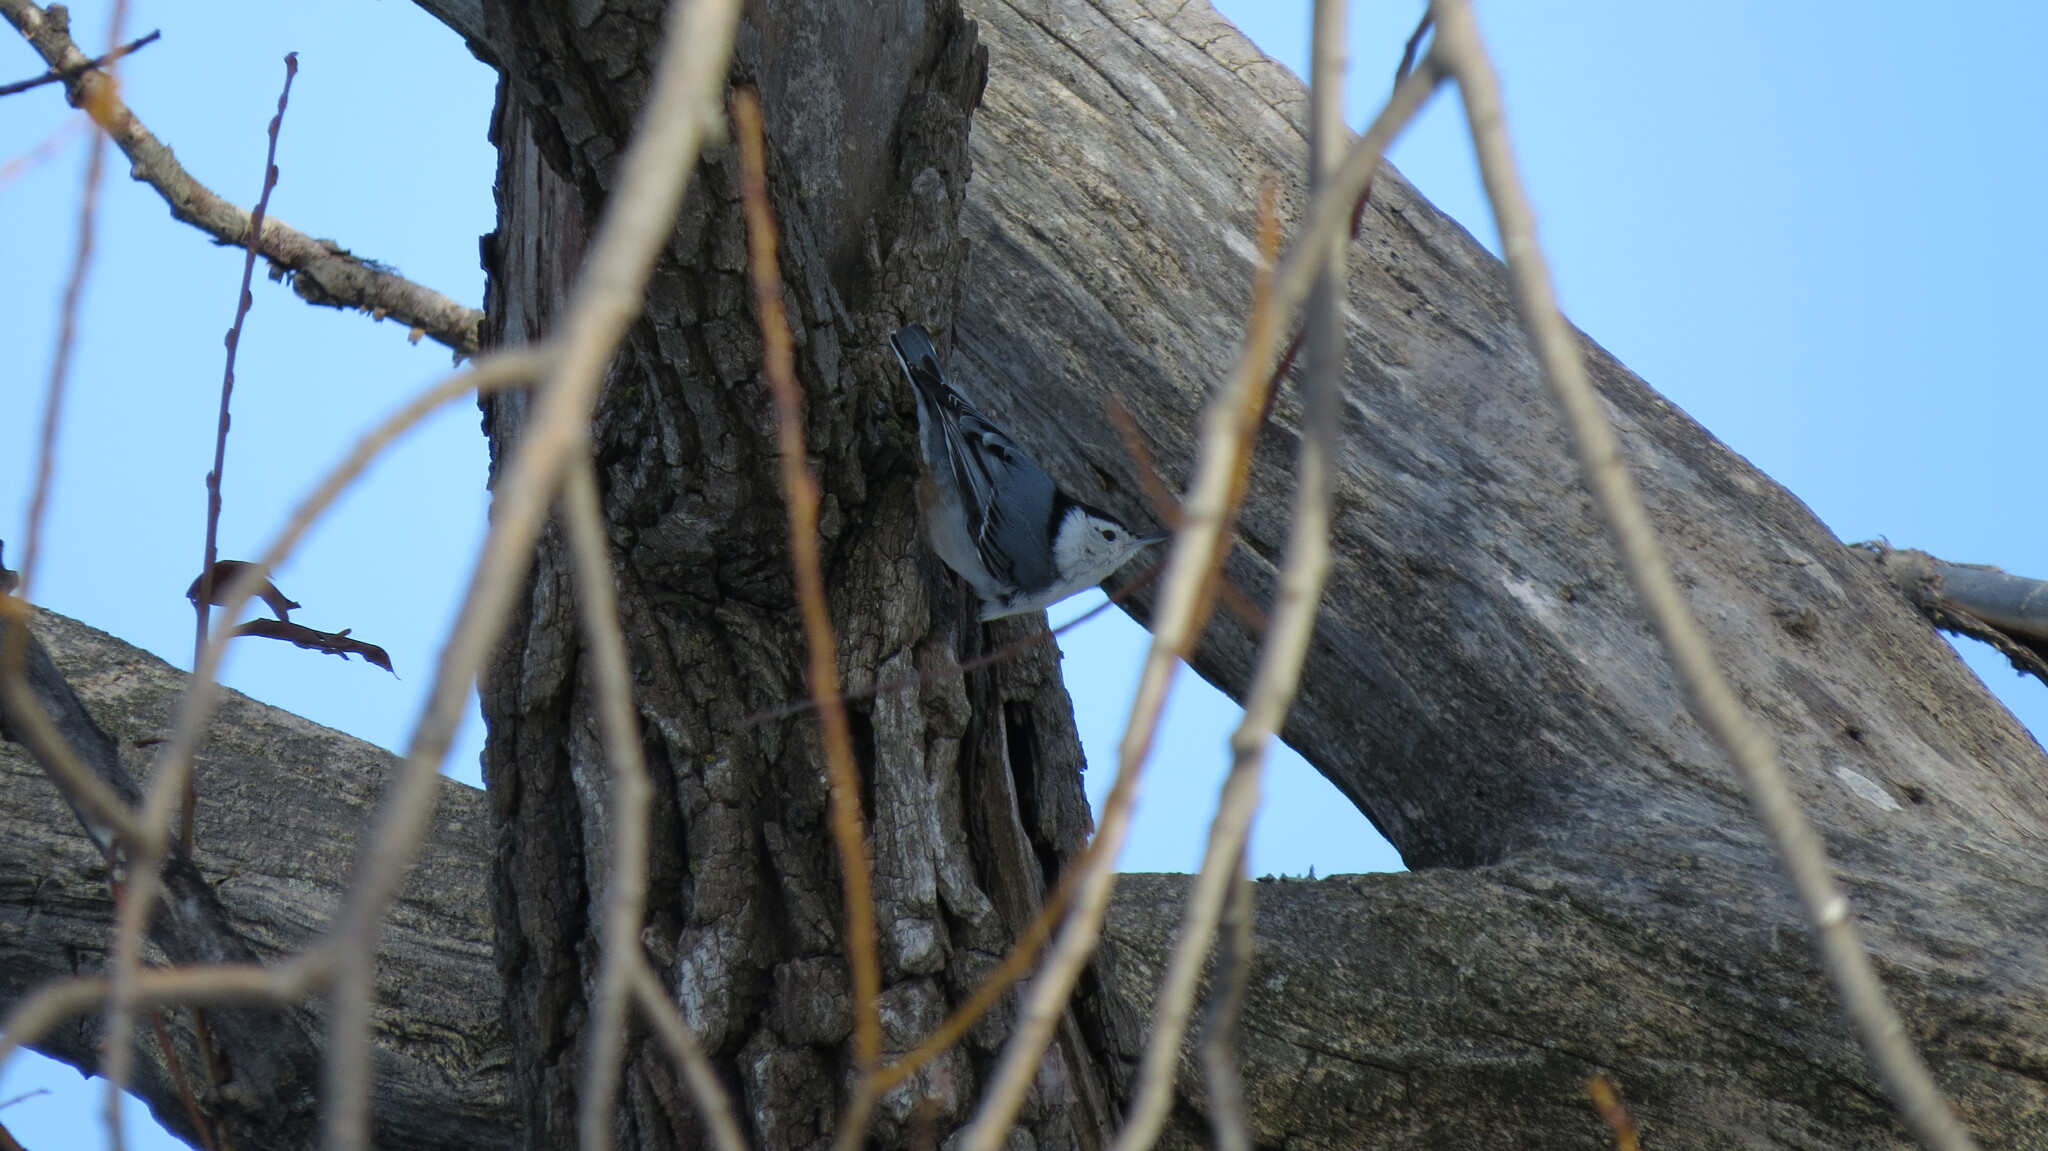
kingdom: Animalia
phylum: Chordata
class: Aves
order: Passeriformes
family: Sittidae
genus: Sitta
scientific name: Sitta carolinensis
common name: White-breasted nuthatch
